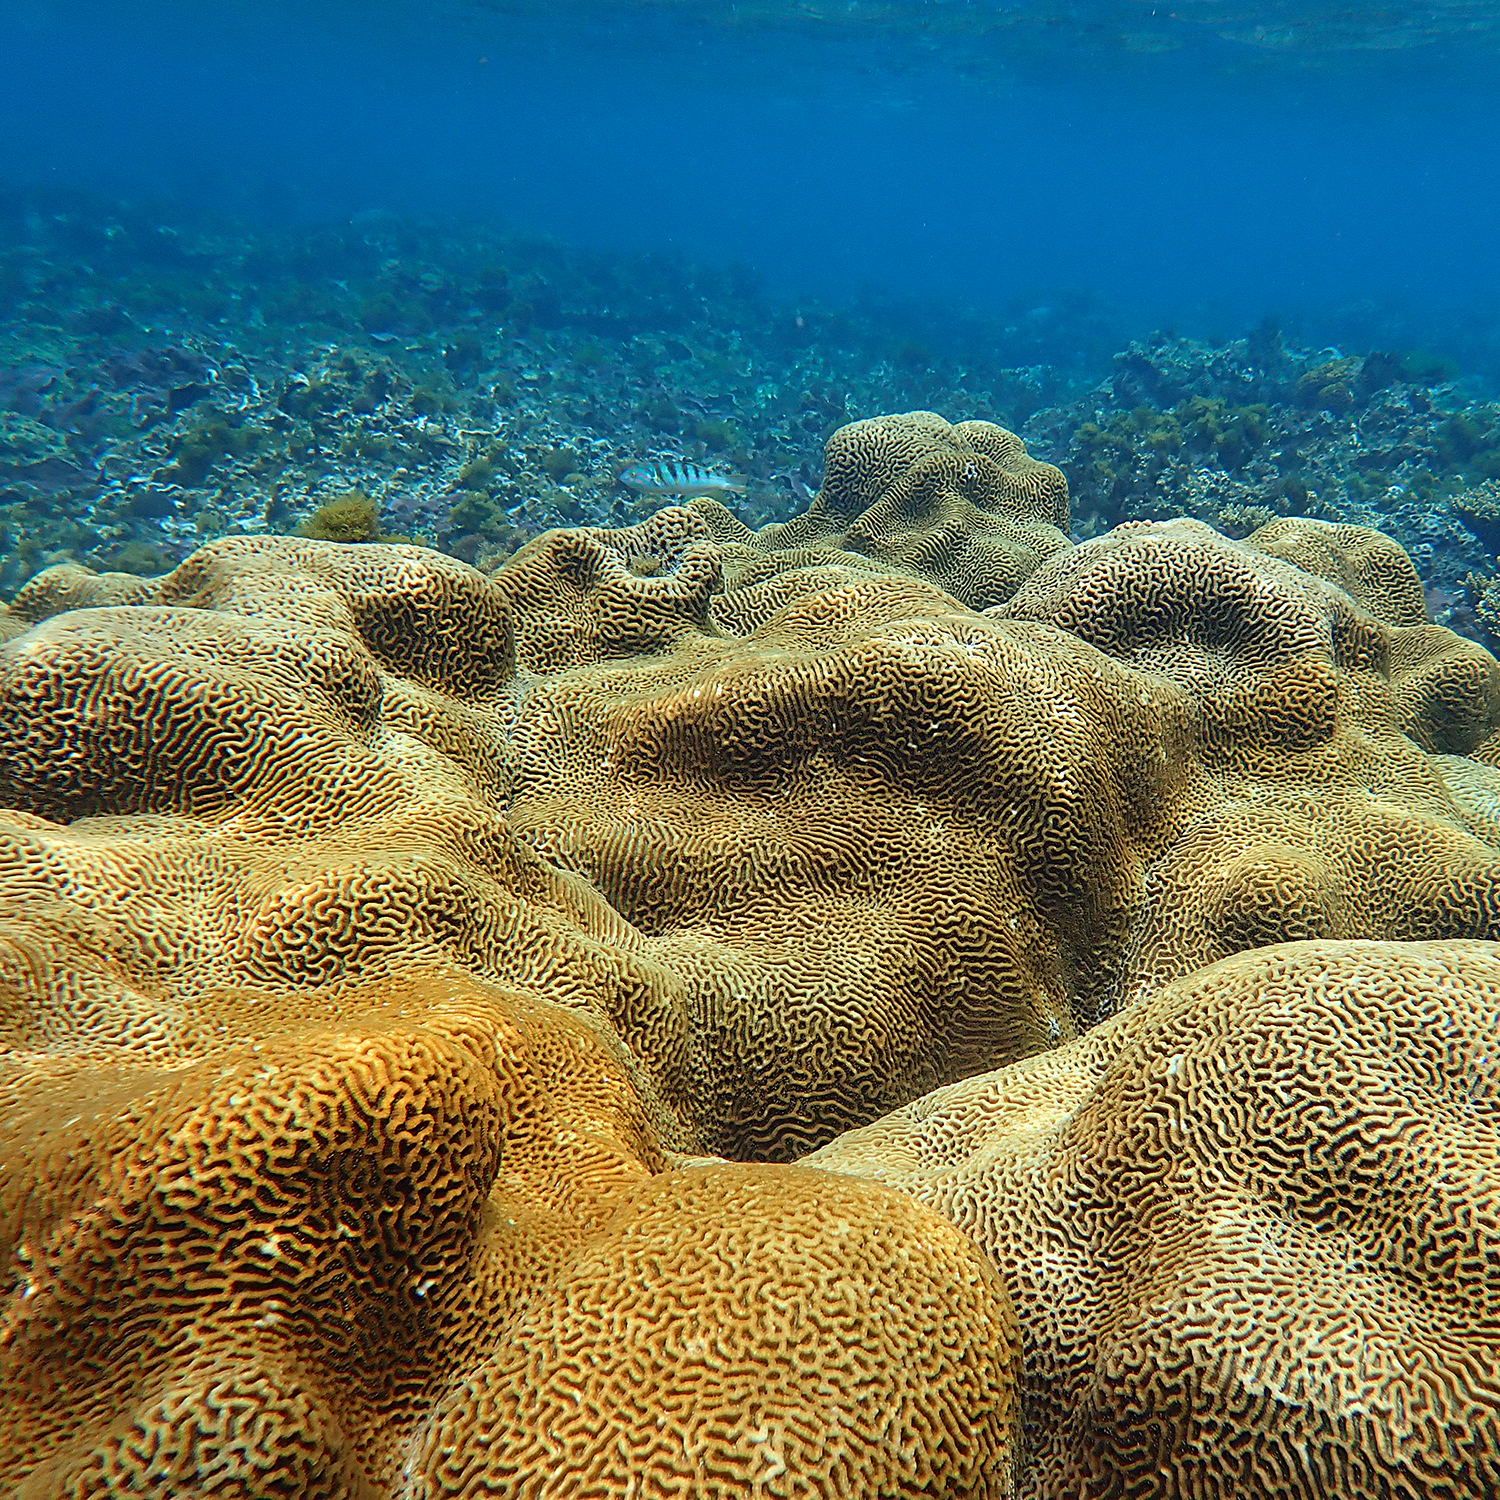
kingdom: Animalia
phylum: Cnidaria
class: Anthozoa
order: Scleractinia
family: Merulinidae
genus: Paragoniastrea
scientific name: Paragoniastrea australensis
